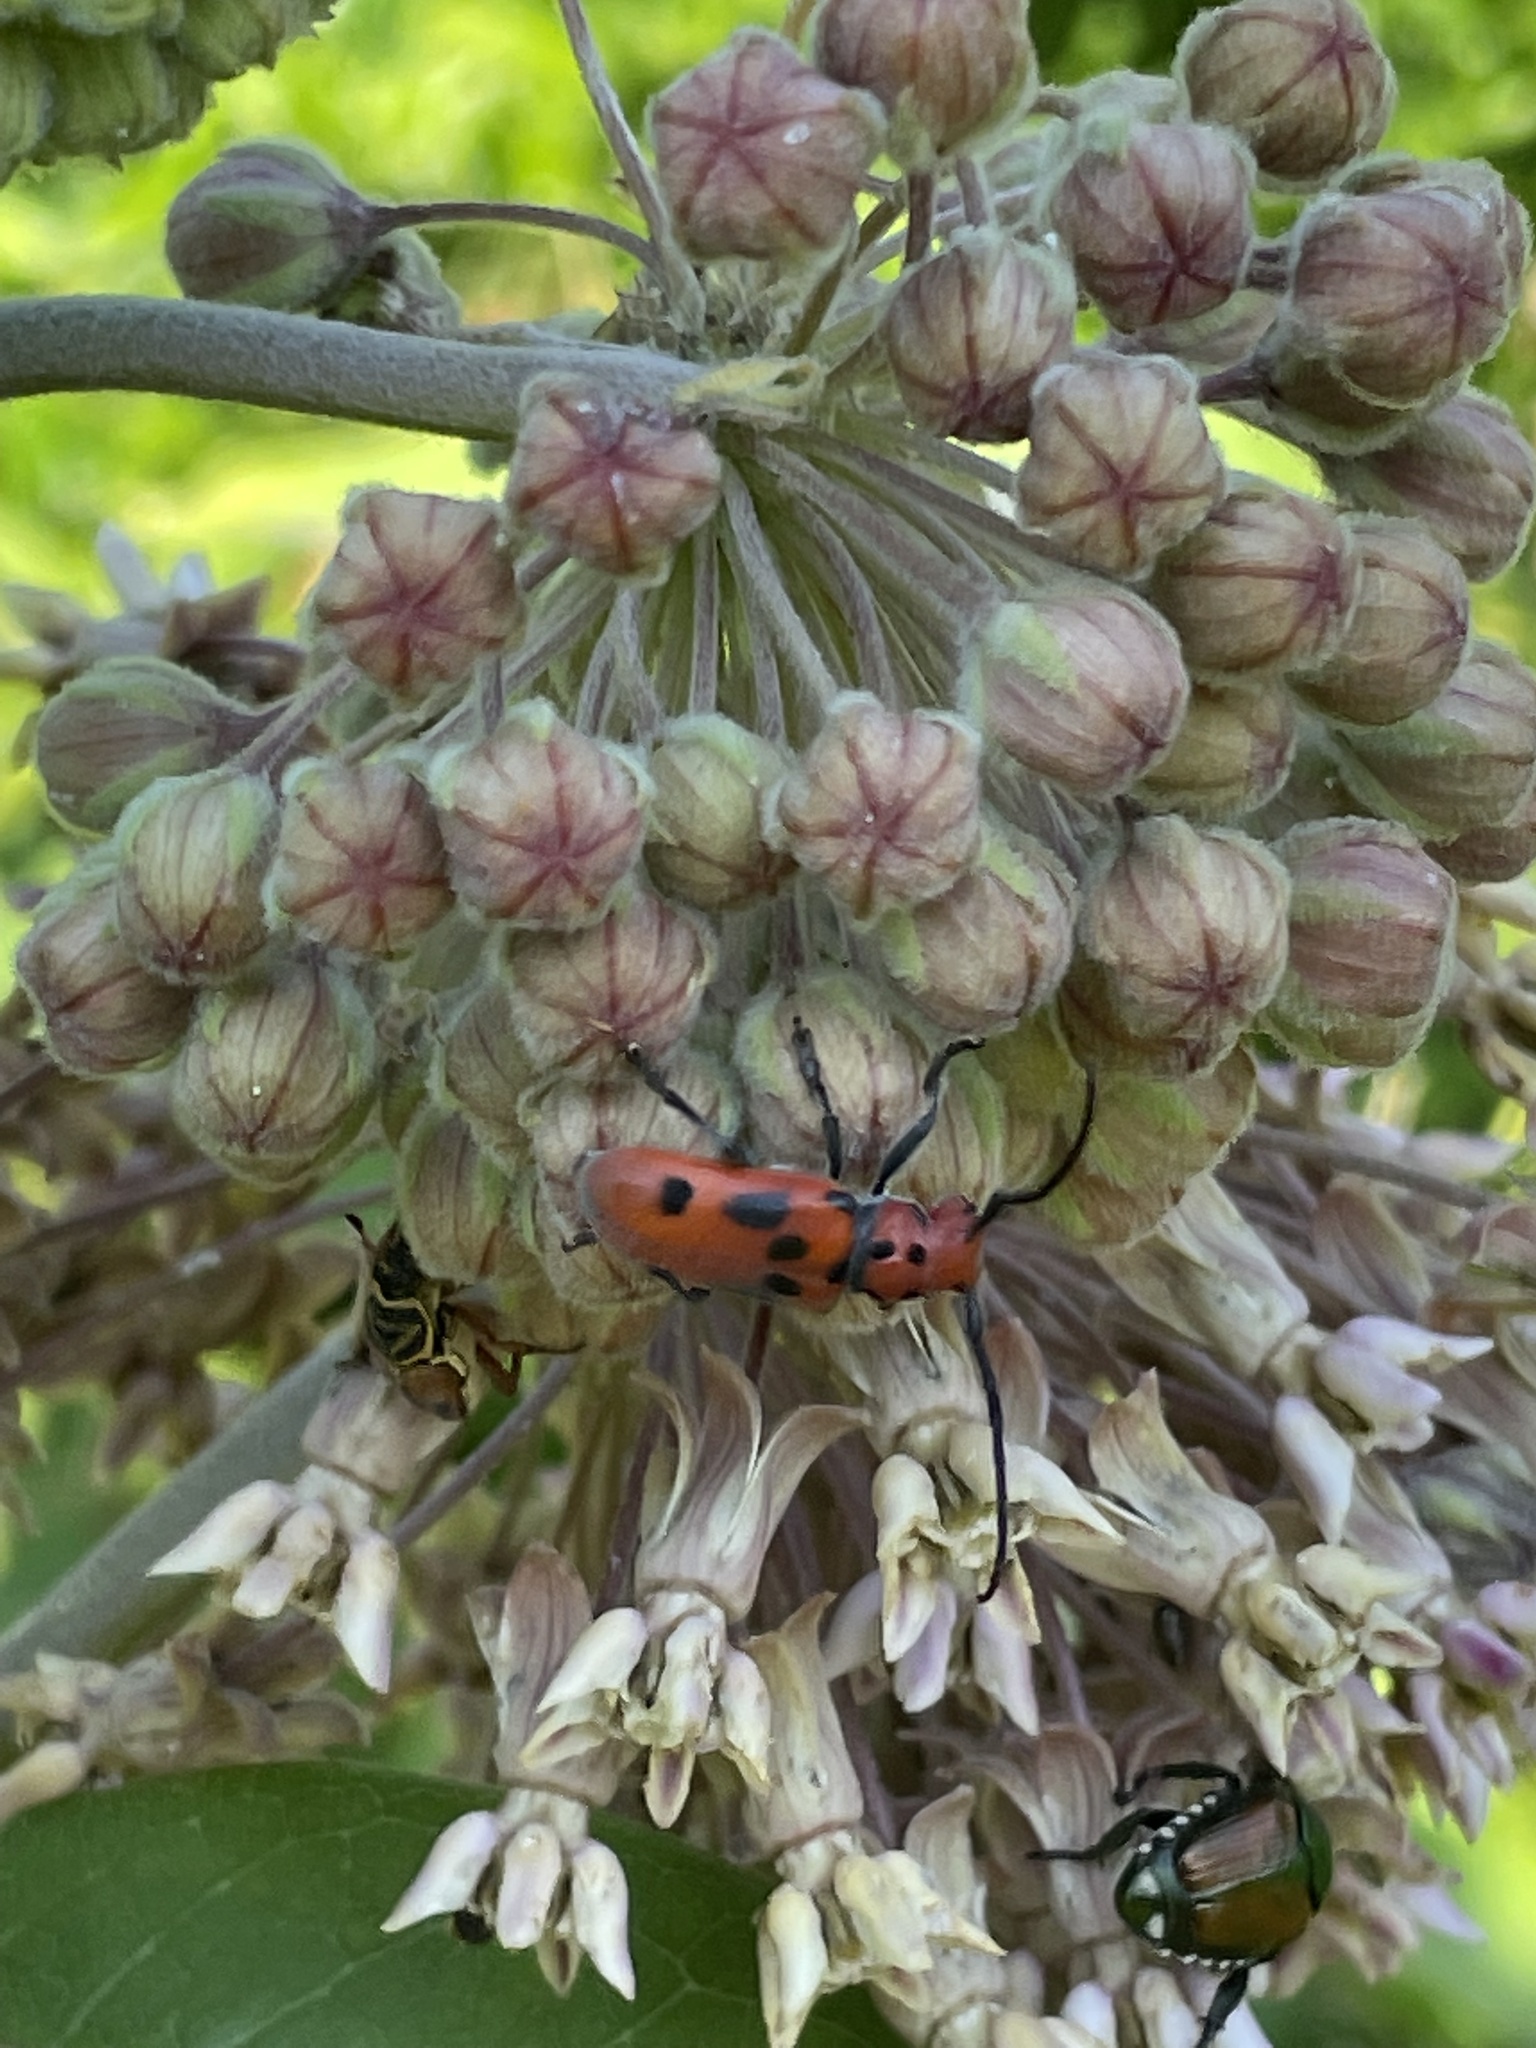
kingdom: Animalia
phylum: Arthropoda
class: Insecta
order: Coleoptera
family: Cerambycidae
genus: Tetraopes
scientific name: Tetraopes tetrophthalmus
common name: Red milkweed beetle
